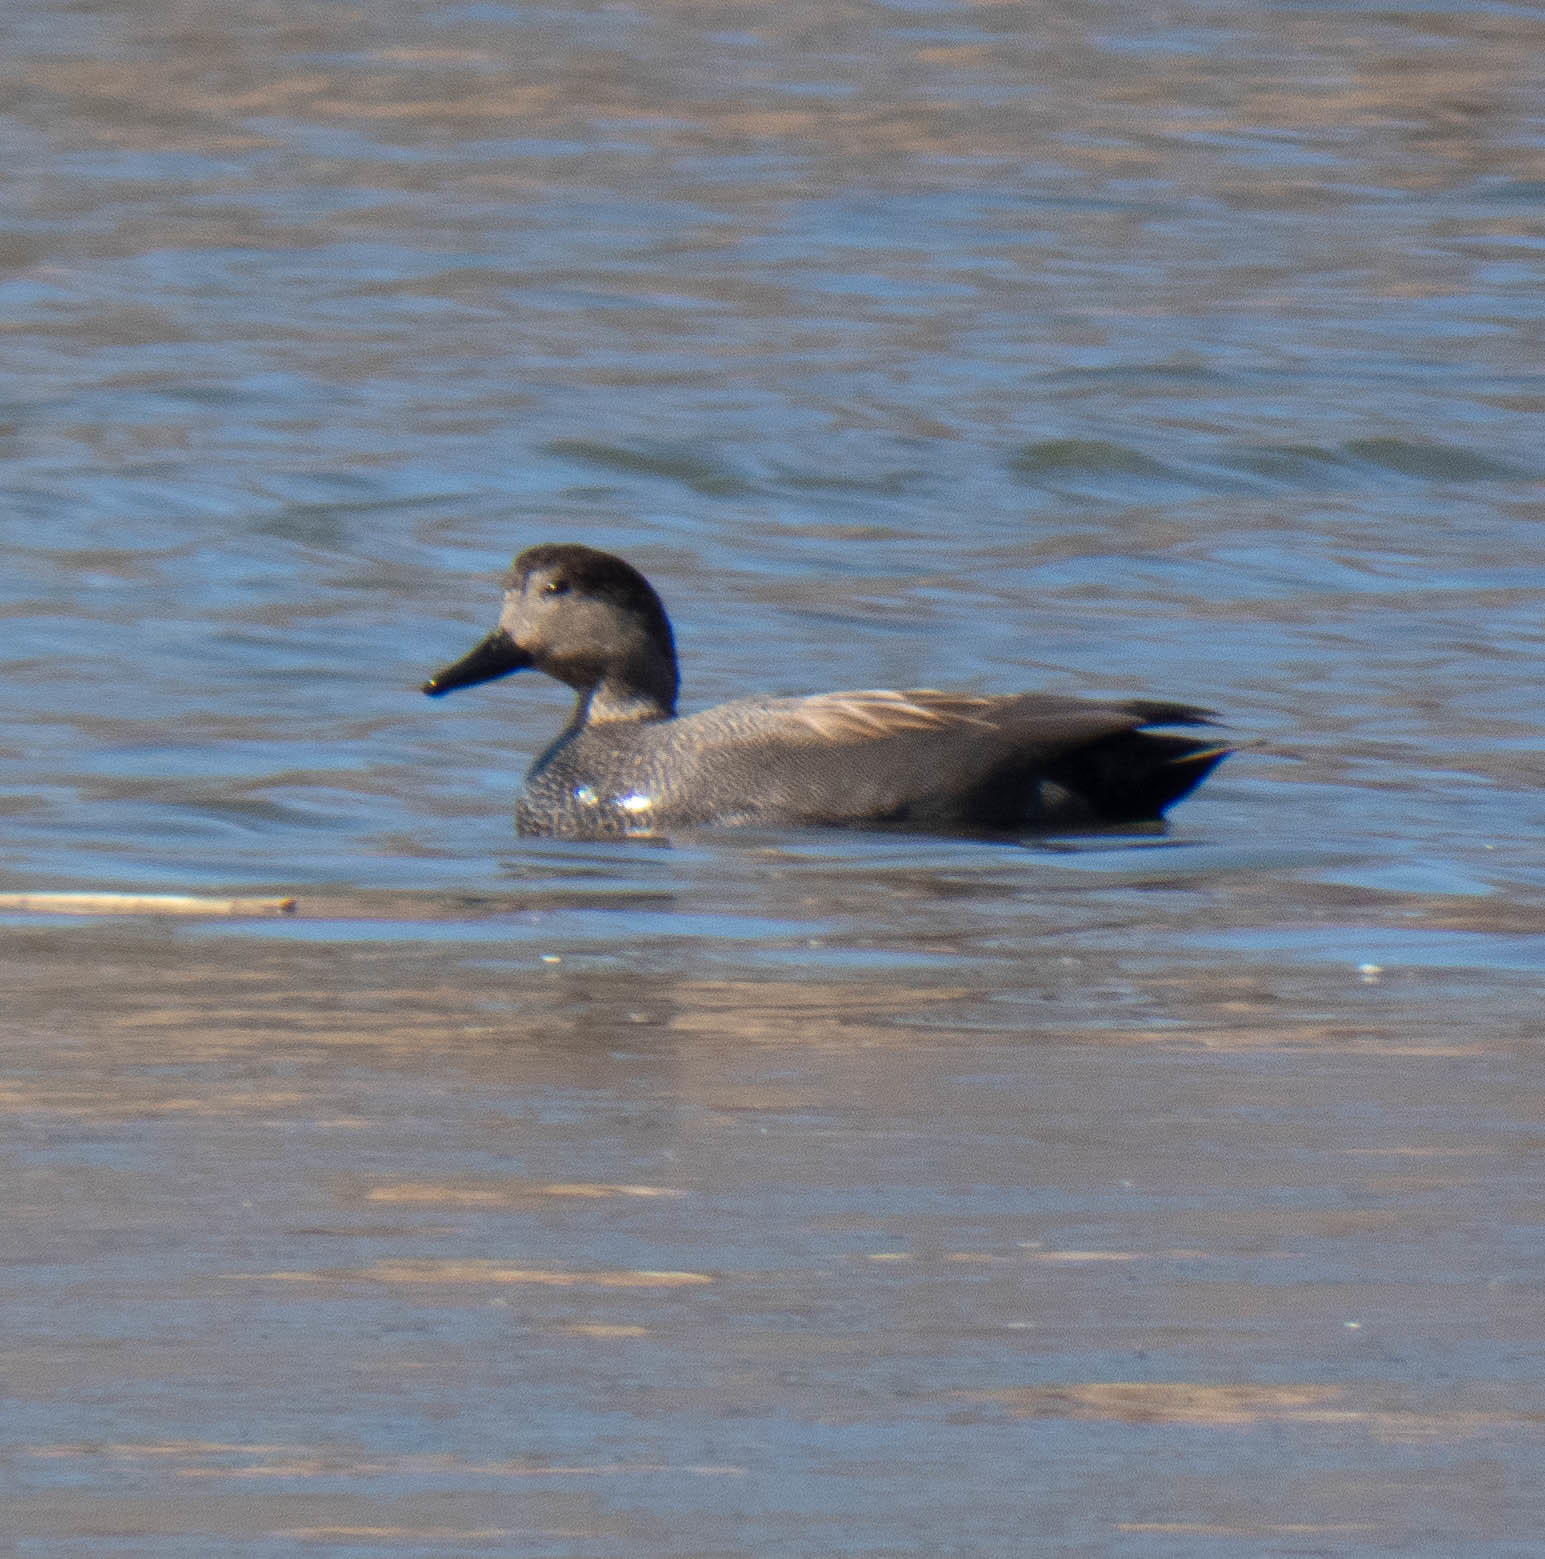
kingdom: Animalia
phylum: Chordata
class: Aves
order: Anseriformes
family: Anatidae
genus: Mareca
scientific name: Mareca strepera
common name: Gadwall
